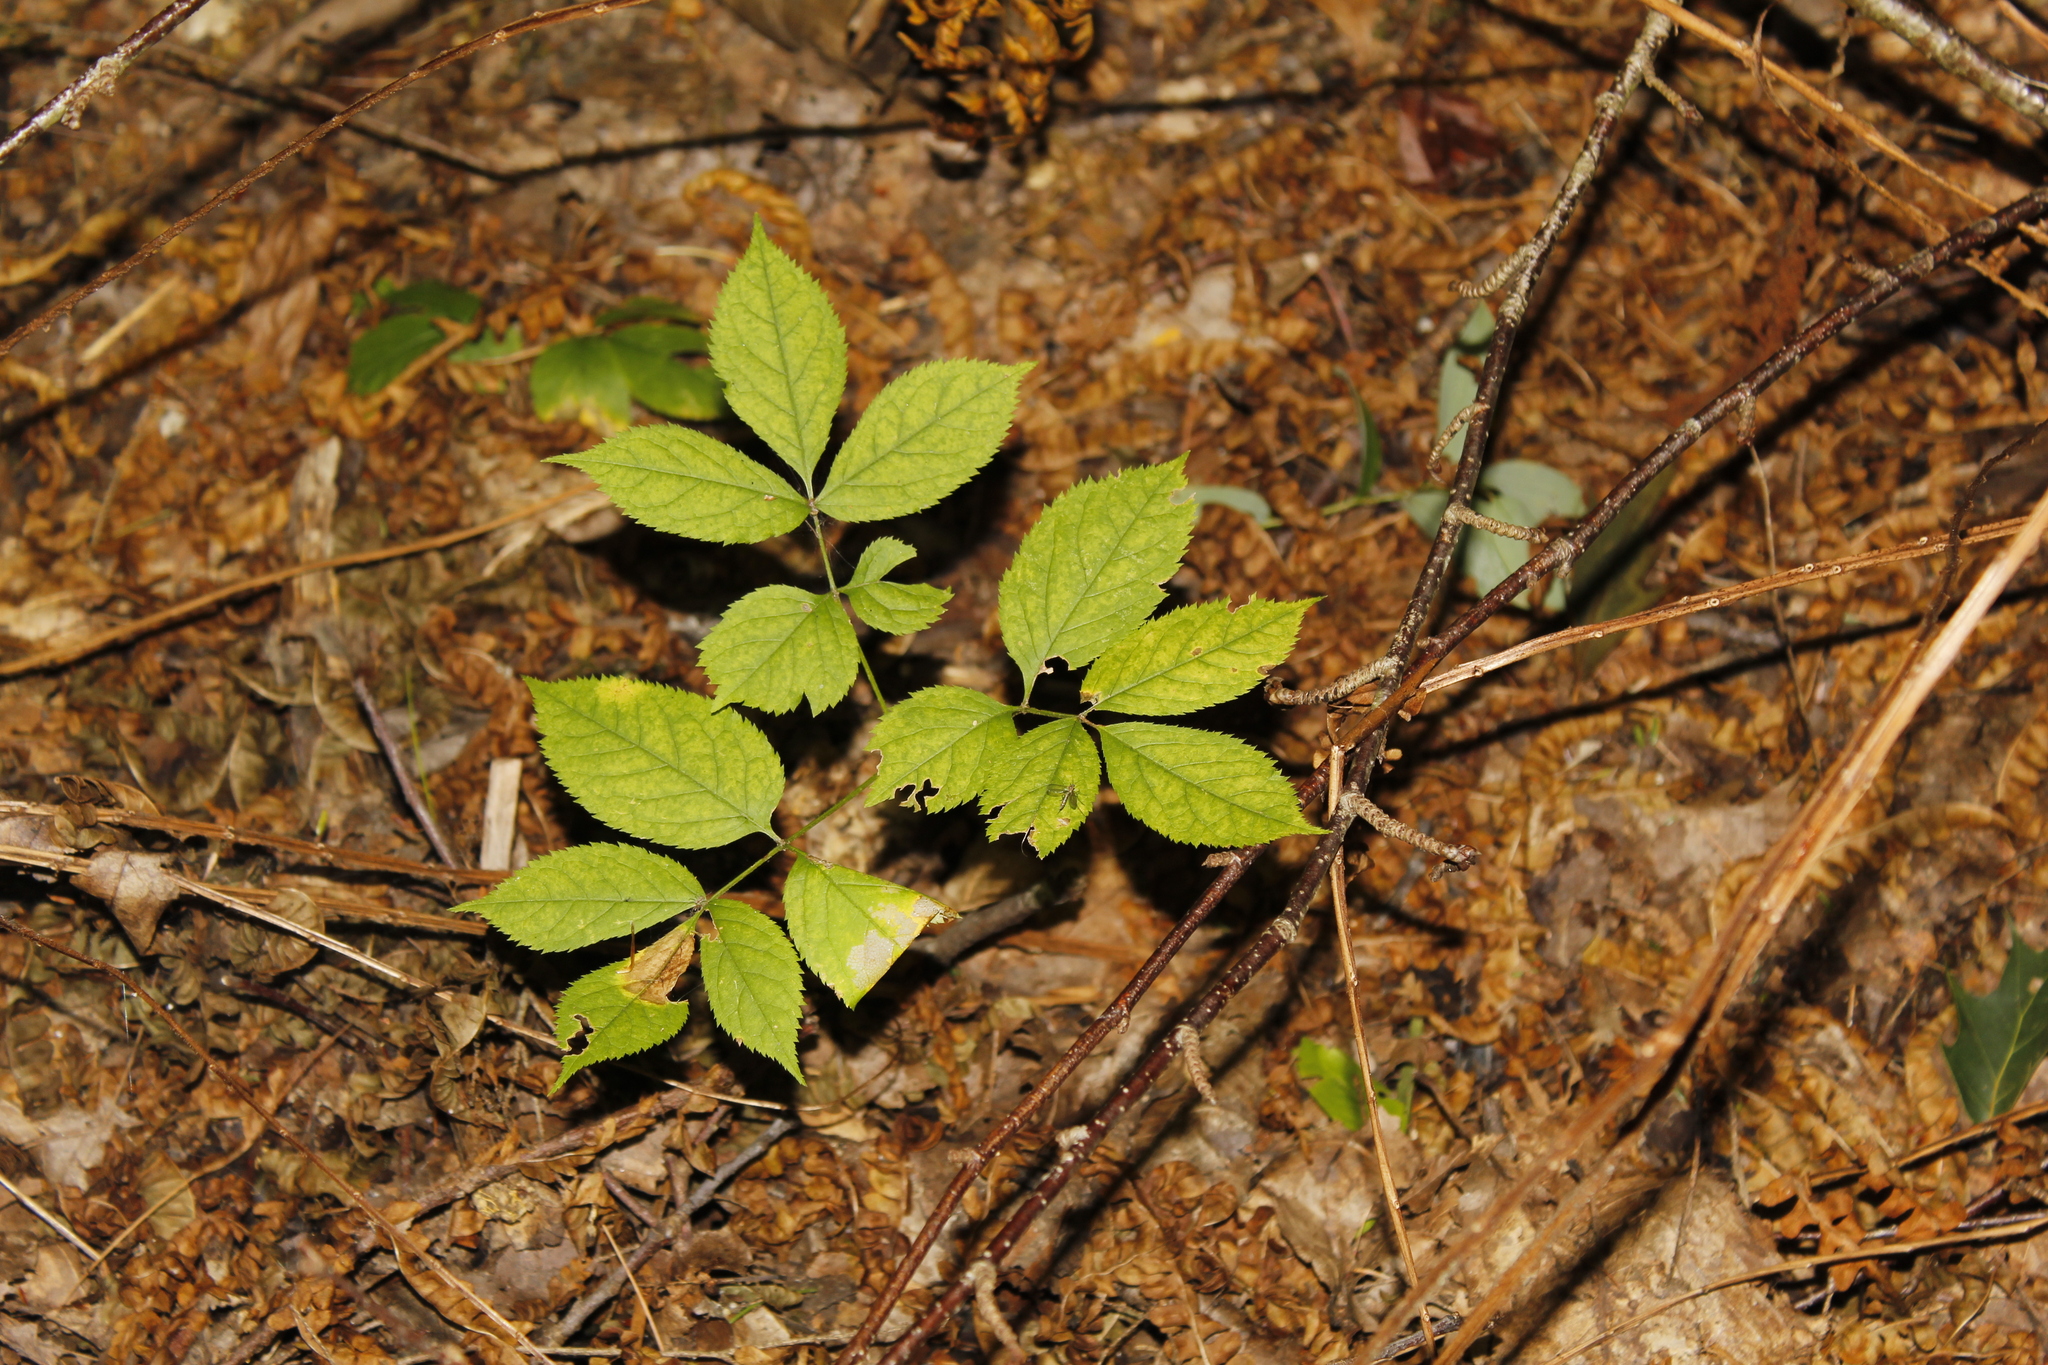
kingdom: Plantae
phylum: Tracheophyta
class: Magnoliopsida
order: Apiales
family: Araliaceae
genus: Aralia
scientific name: Aralia nudicaulis
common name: Wild sarsaparilla
